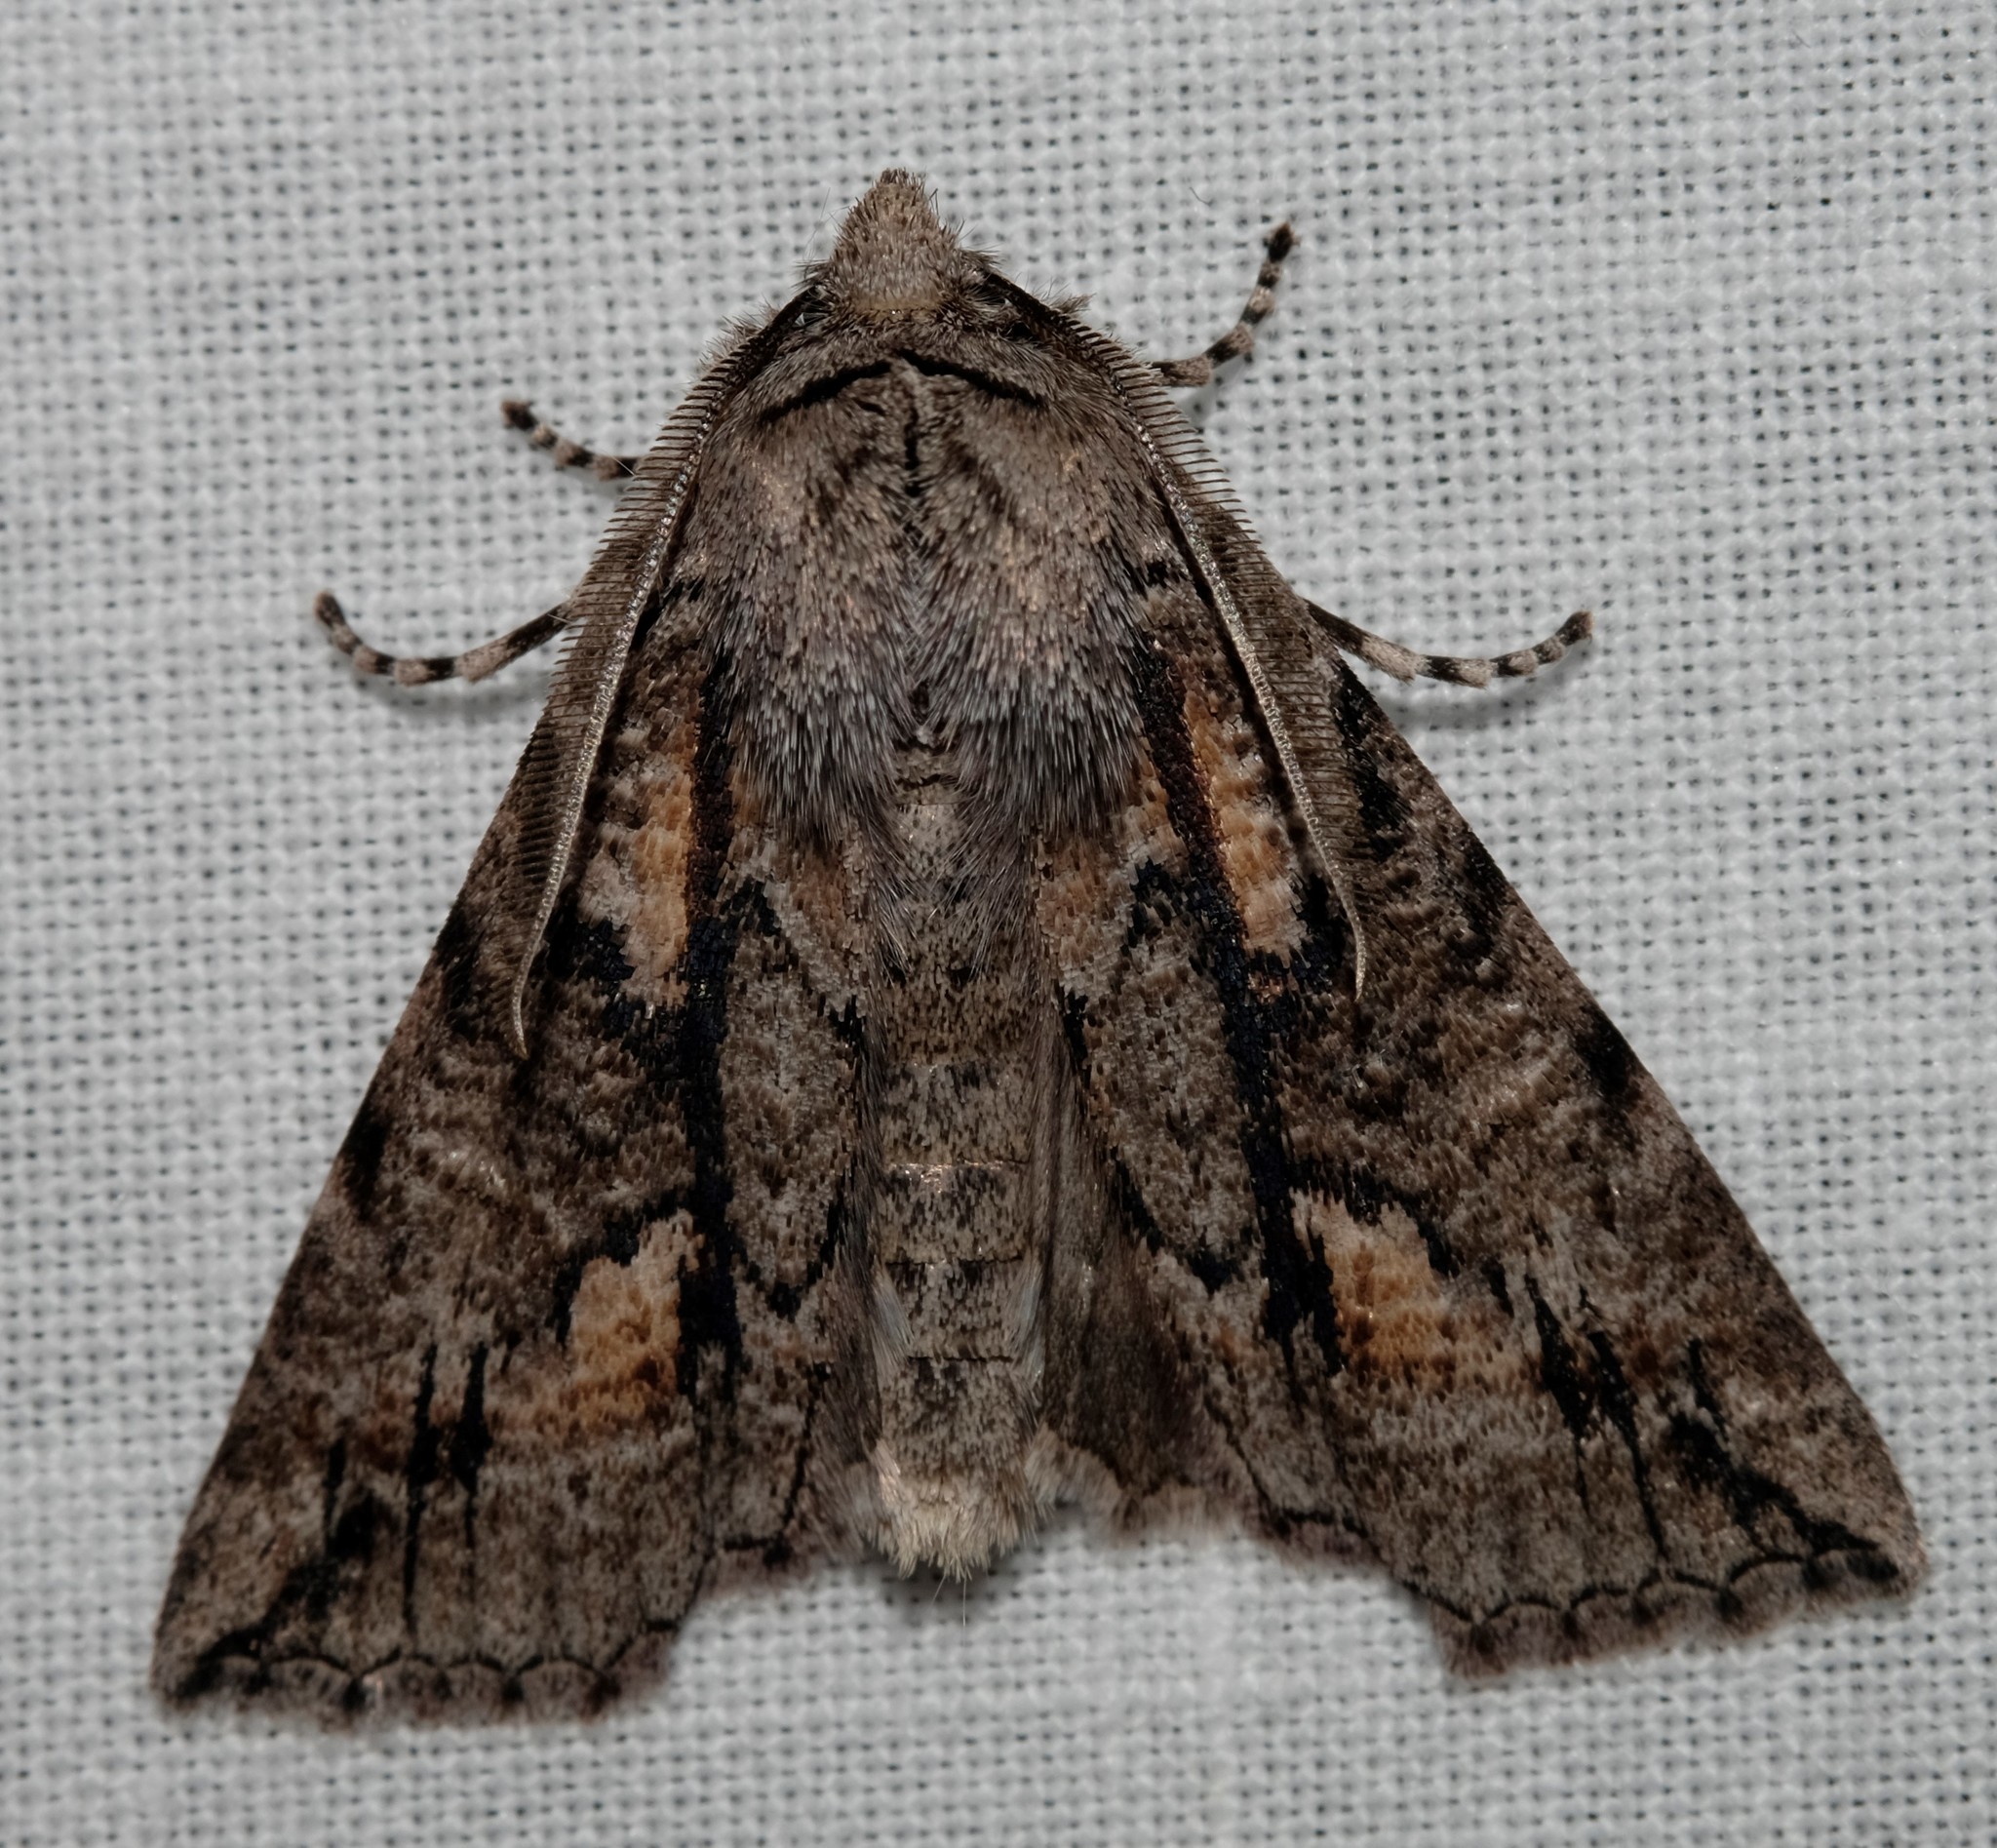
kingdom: Animalia
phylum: Arthropoda
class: Insecta
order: Lepidoptera
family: Geometridae
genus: Nisista
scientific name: Nisista galearia
